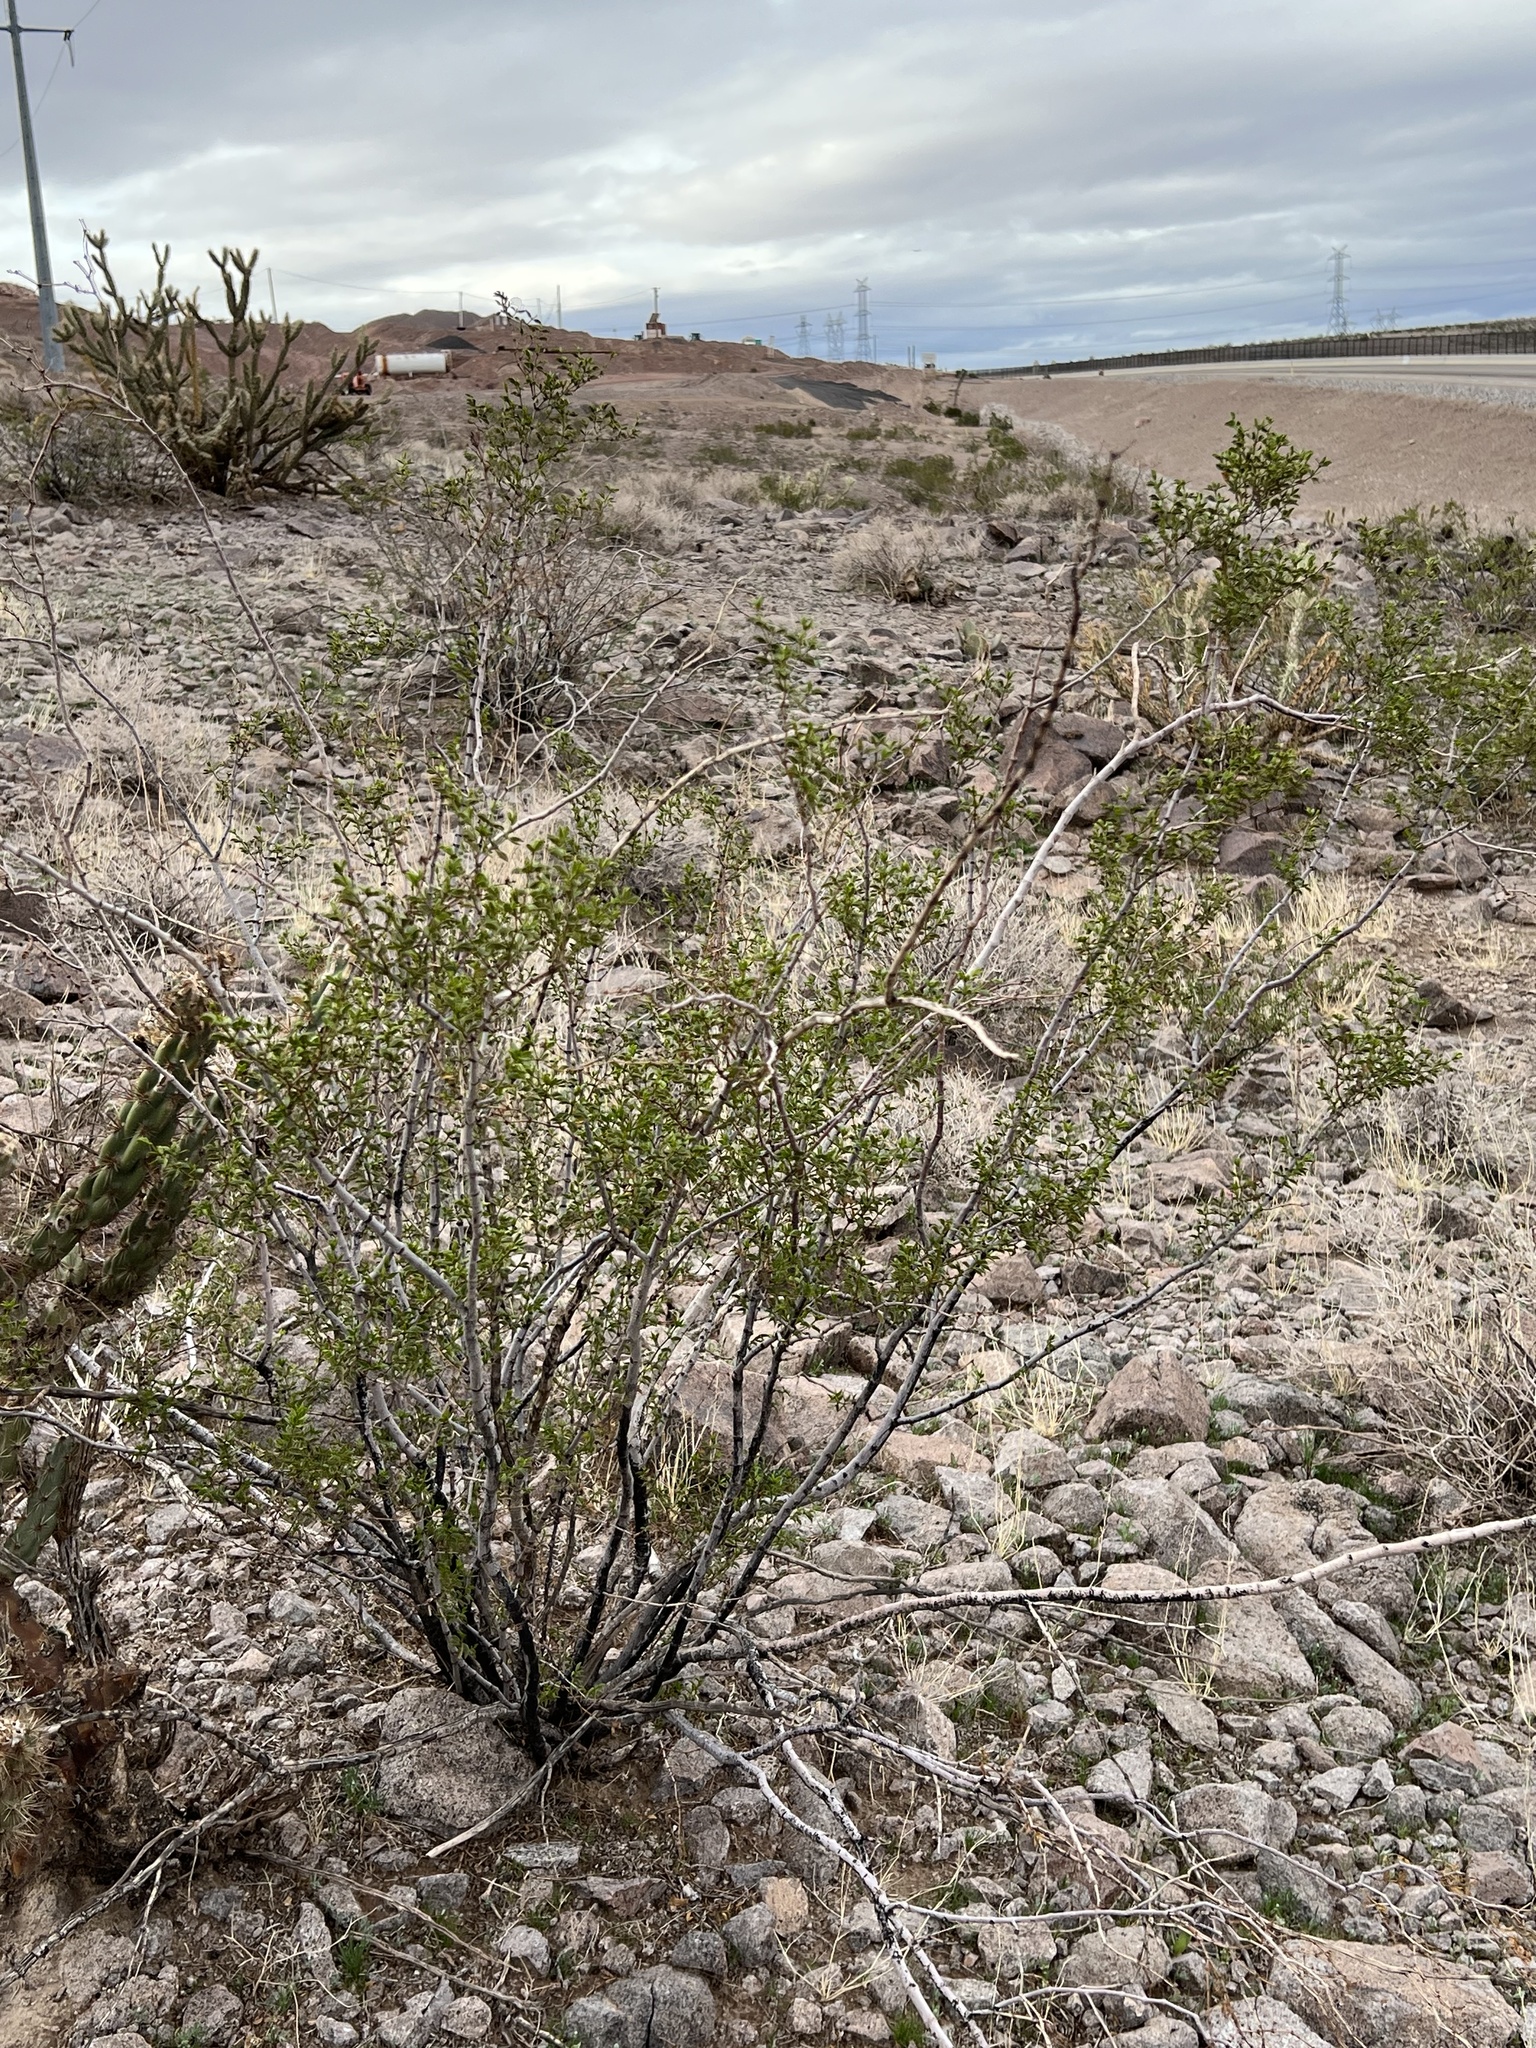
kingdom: Plantae
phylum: Tracheophyta
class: Magnoliopsida
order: Zygophyllales
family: Zygophyllaceae
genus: Larrea
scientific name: Larrea tridentata
